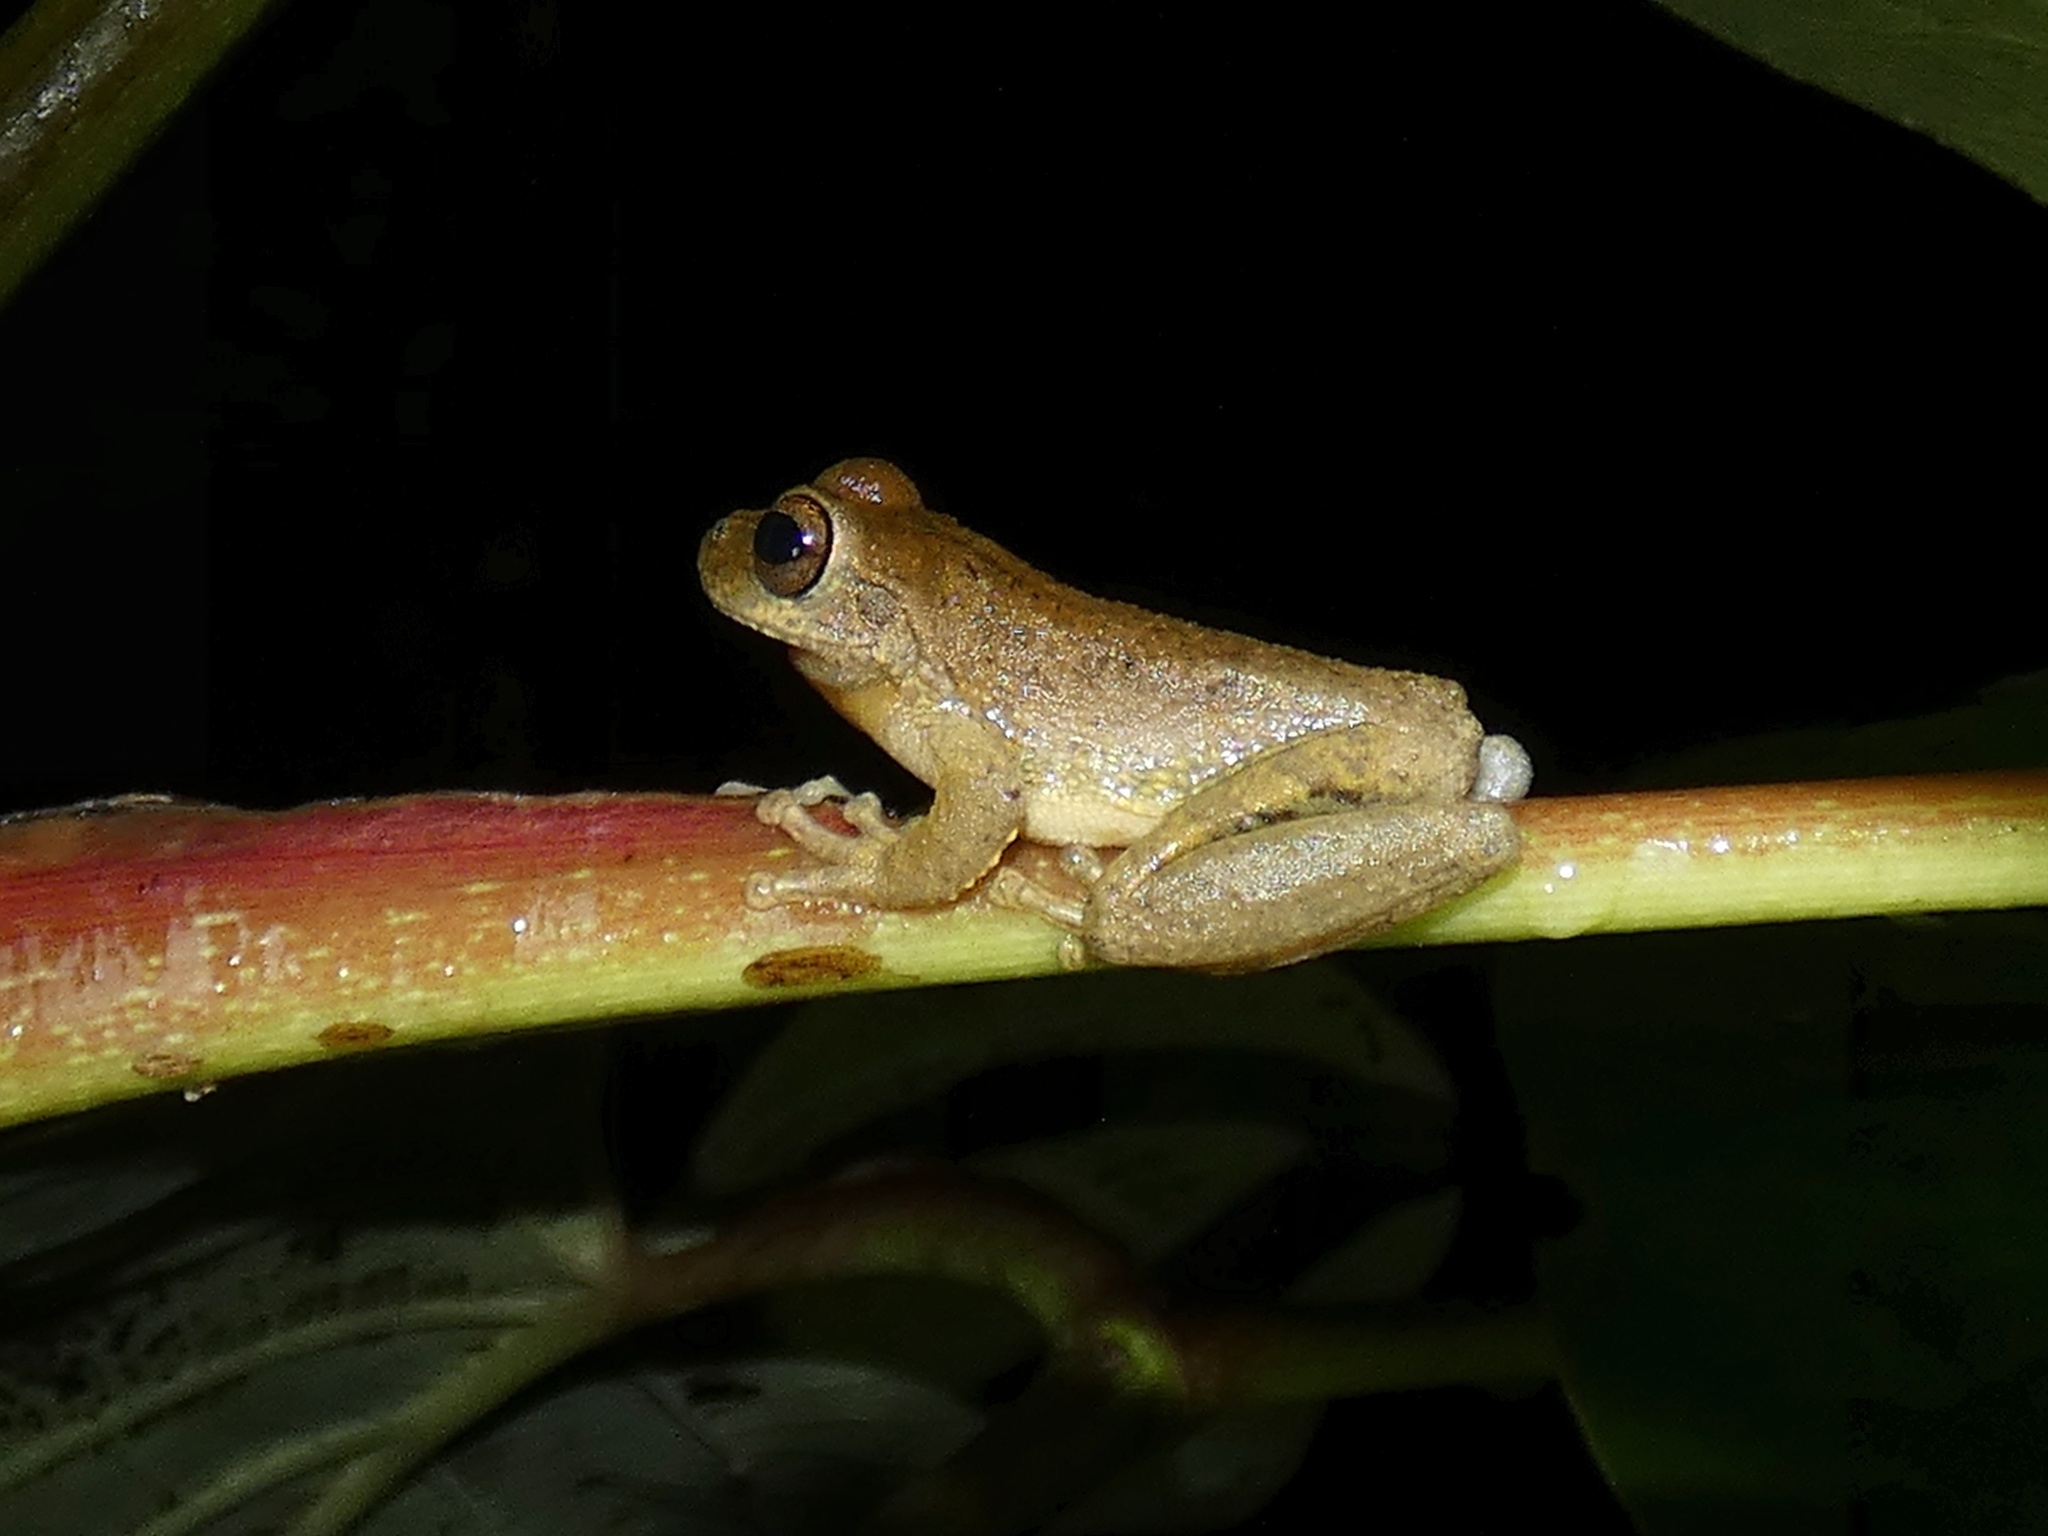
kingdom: Animalia
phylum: Chordata
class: Amphibia
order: Anura
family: Hylidae
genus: Smilisca
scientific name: Smilisca sila
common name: Panama cross-banded treefrog
